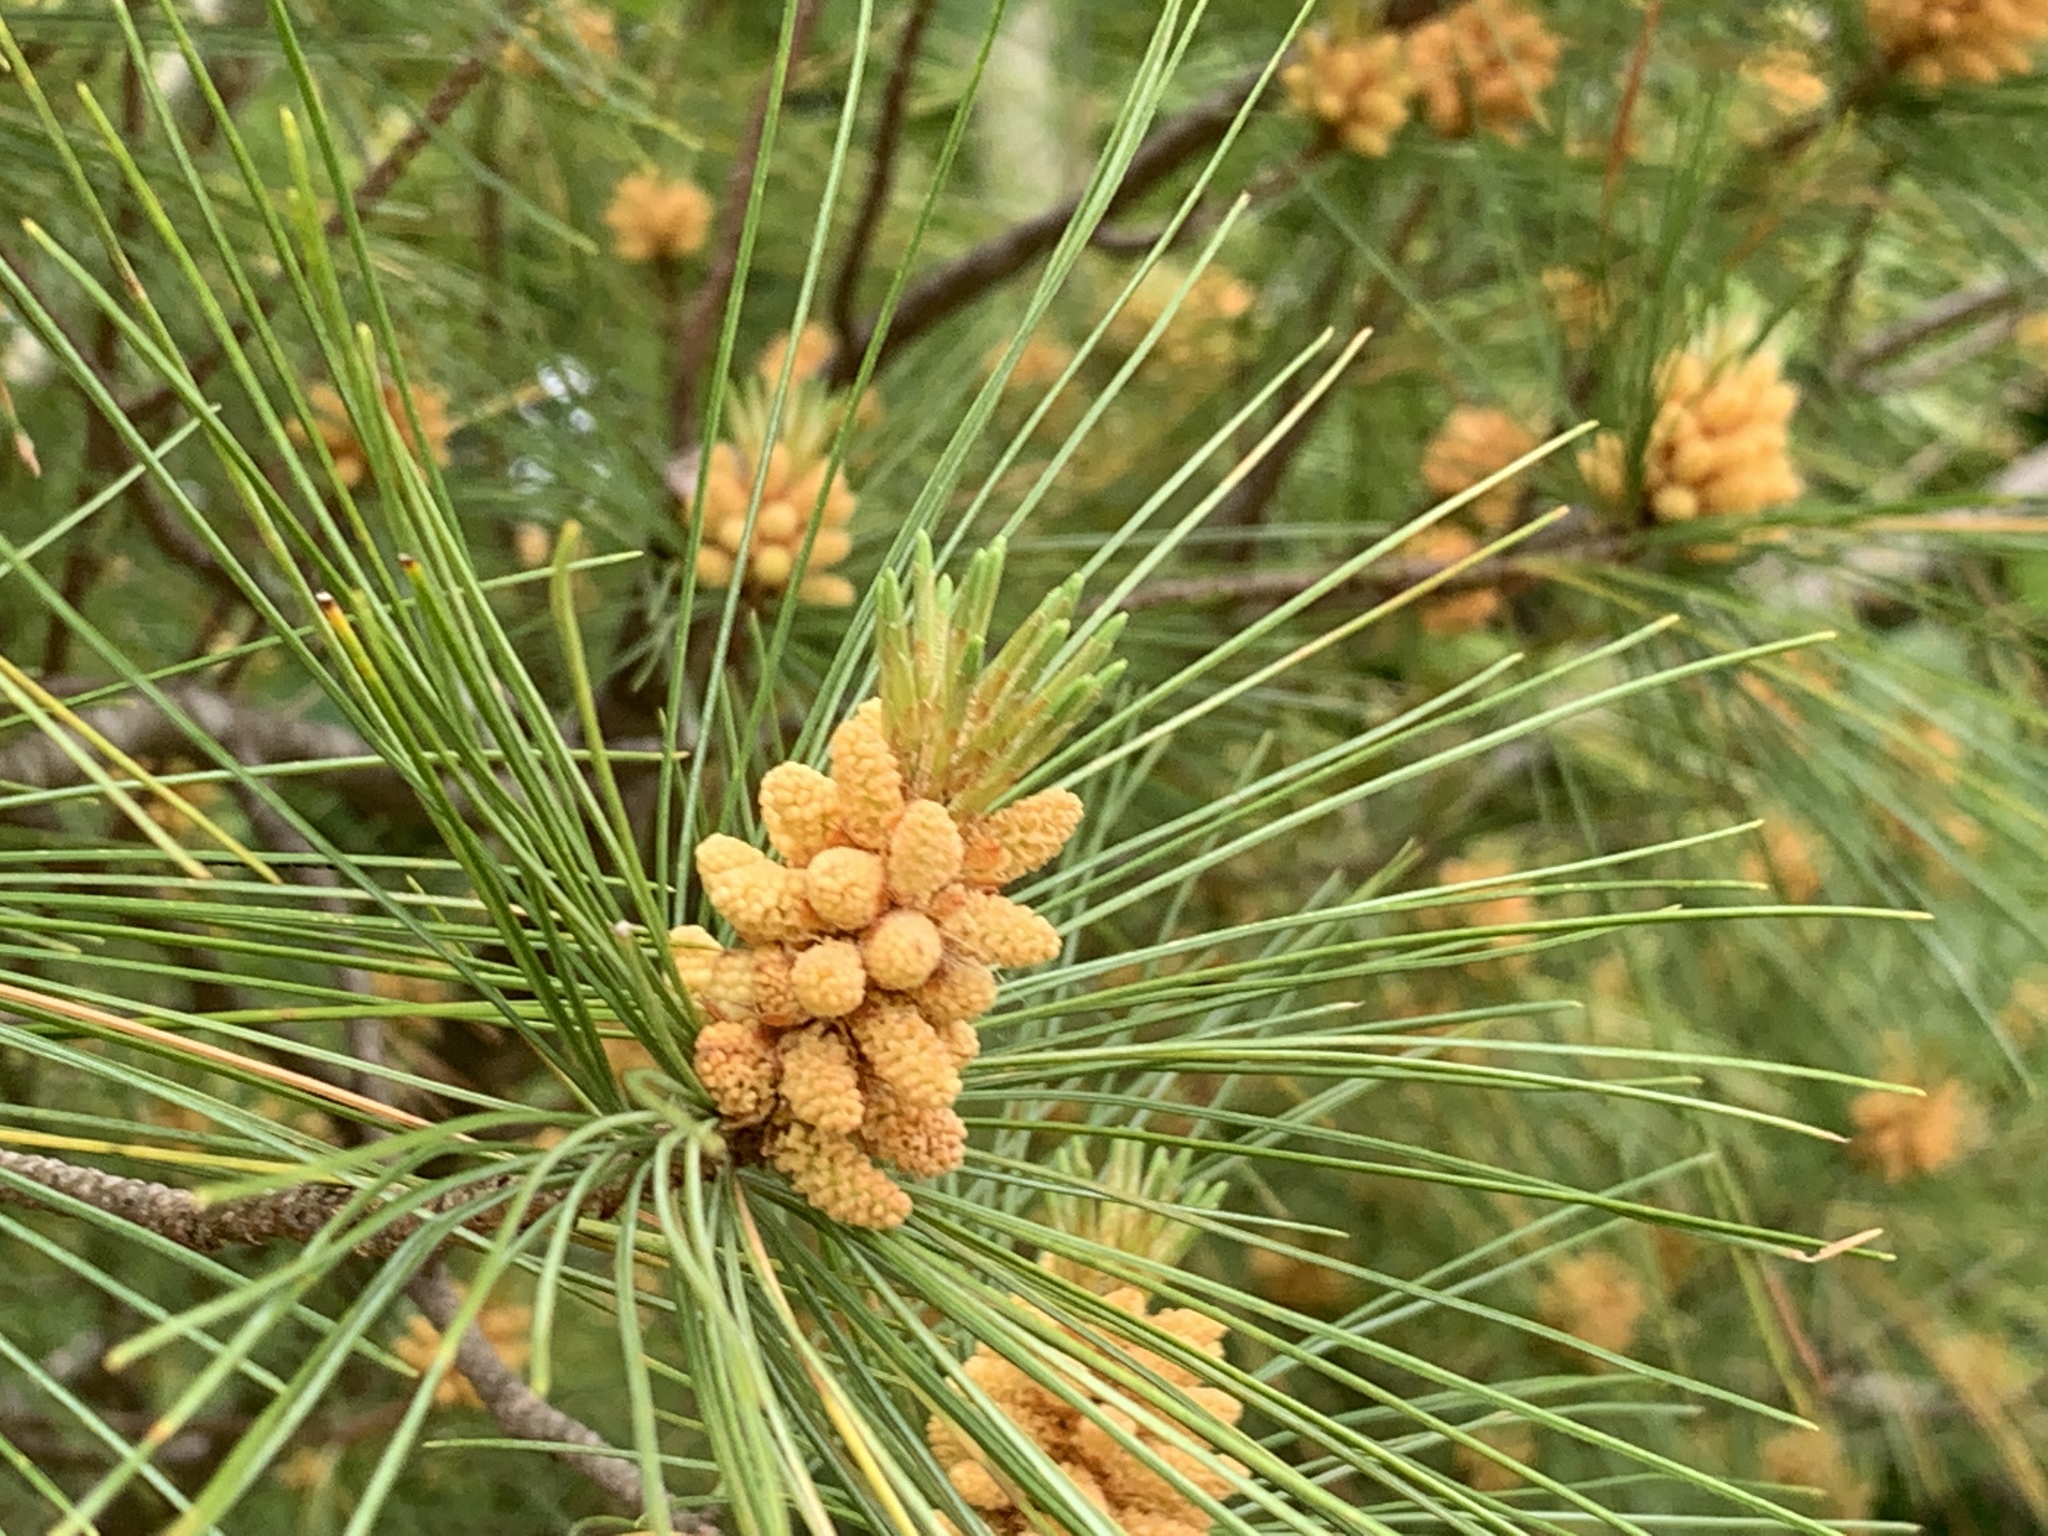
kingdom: Plantae
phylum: Tracheophyta
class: Pinopsida
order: Pinales
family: Pinaceae
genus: Pinus
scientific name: Pinus strobus
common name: Weymouth pine
